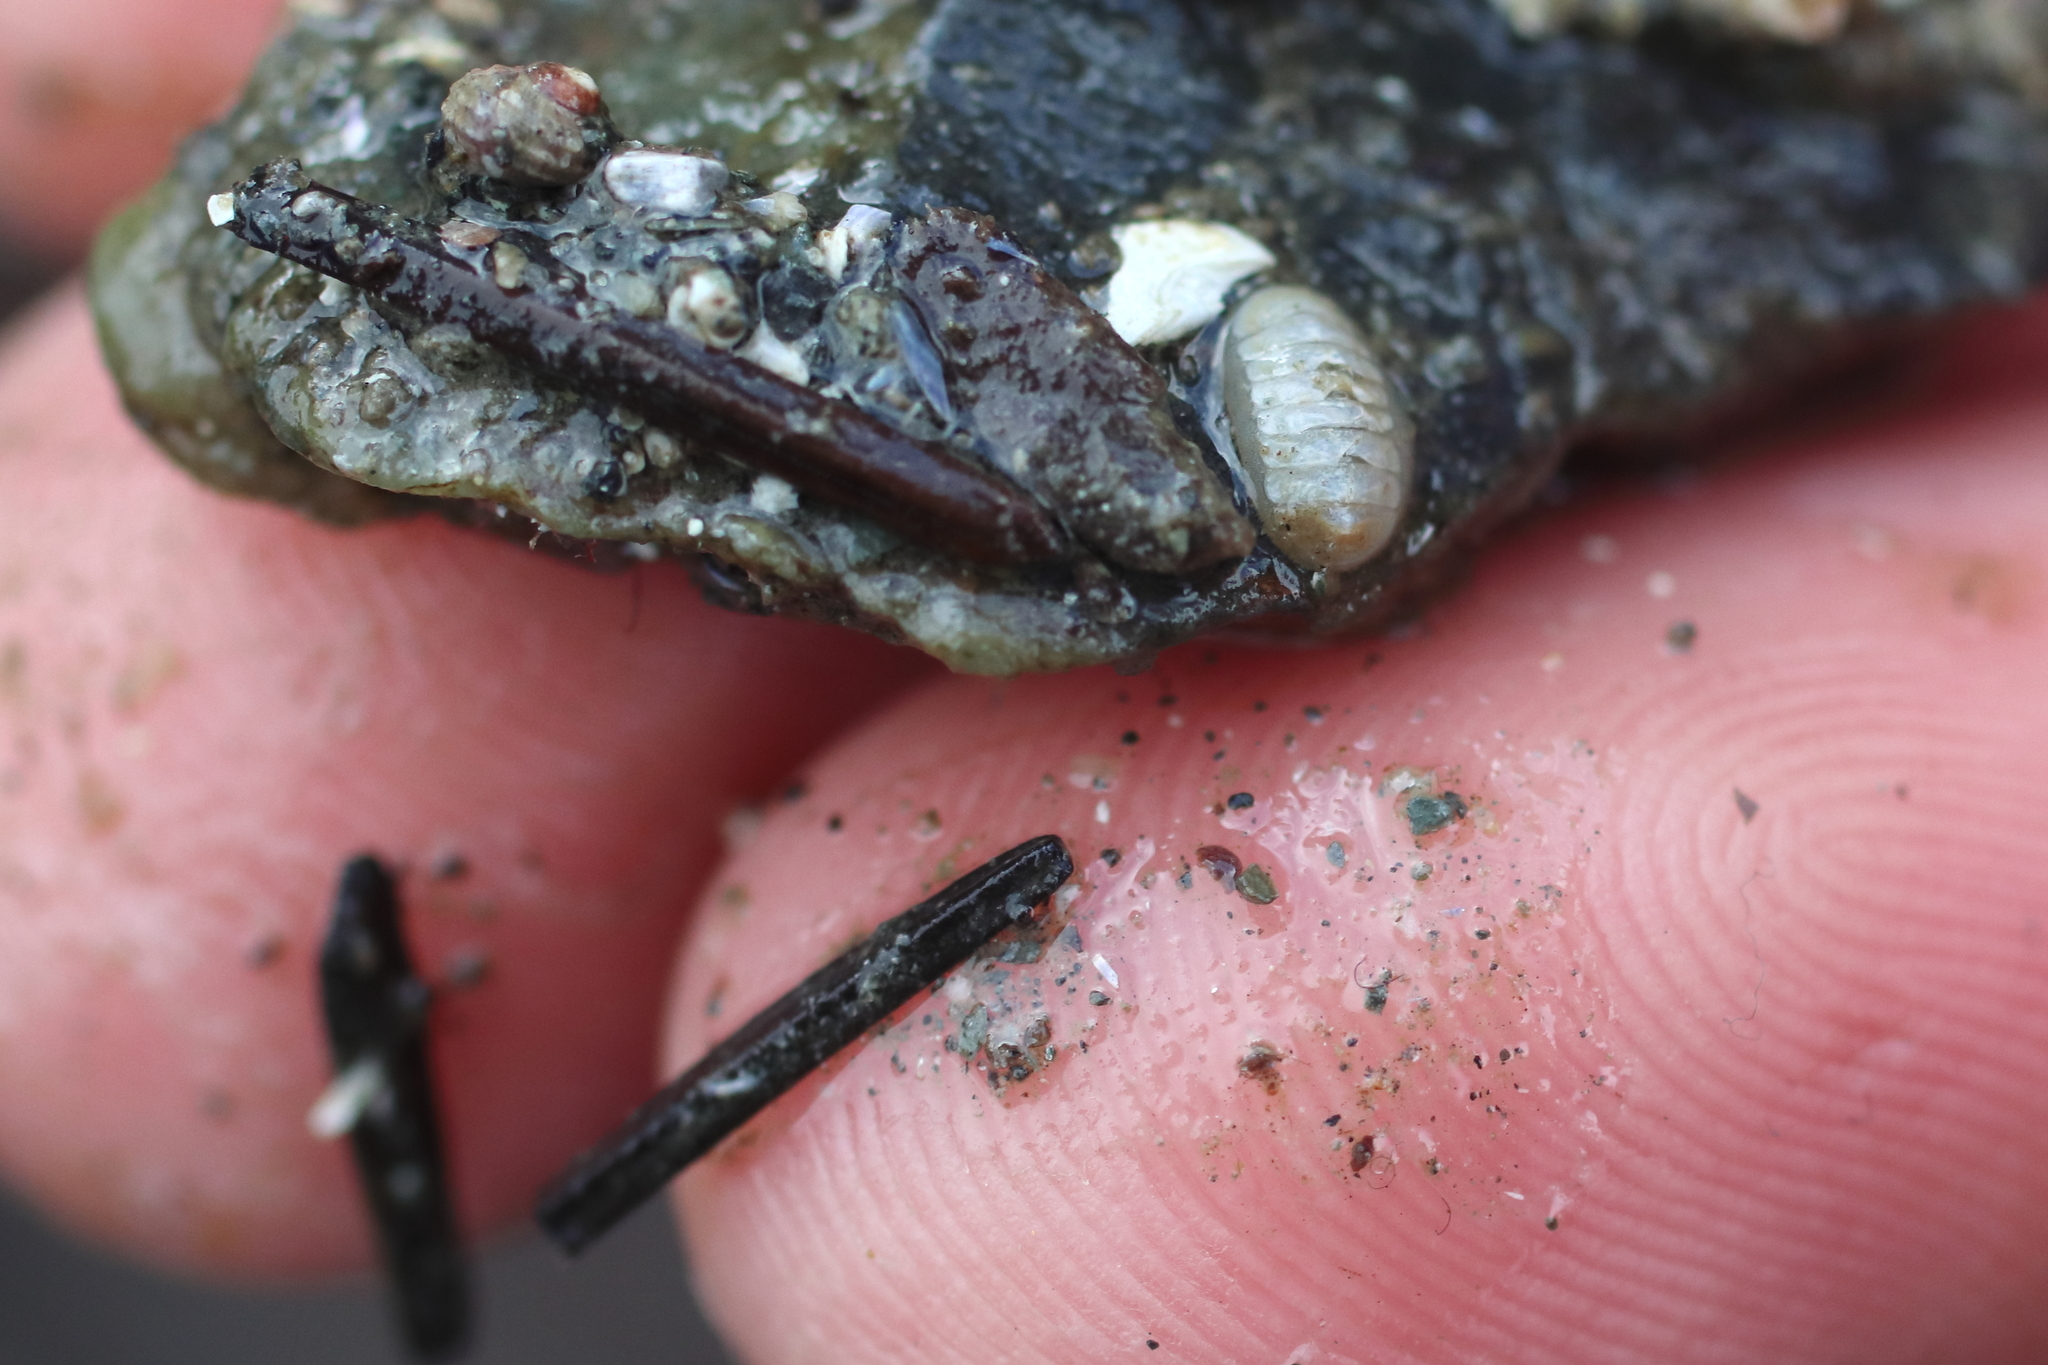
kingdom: Animalia
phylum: Mollusca
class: Polyplacophora
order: Lepidopleurida
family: Leptochitonidae
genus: Leptochiton
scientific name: Leptochiton cascadiensis
